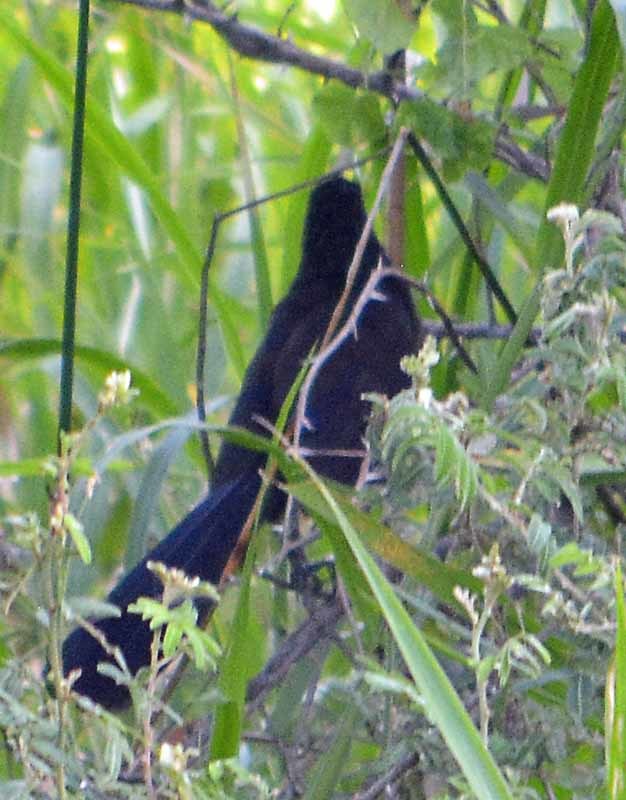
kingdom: Animalia
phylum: Chordata
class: Aves
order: Passeriformes
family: Icteridae
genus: Quiscalus
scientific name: Quiscalus mexicanus
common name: Great-tailed grackle
